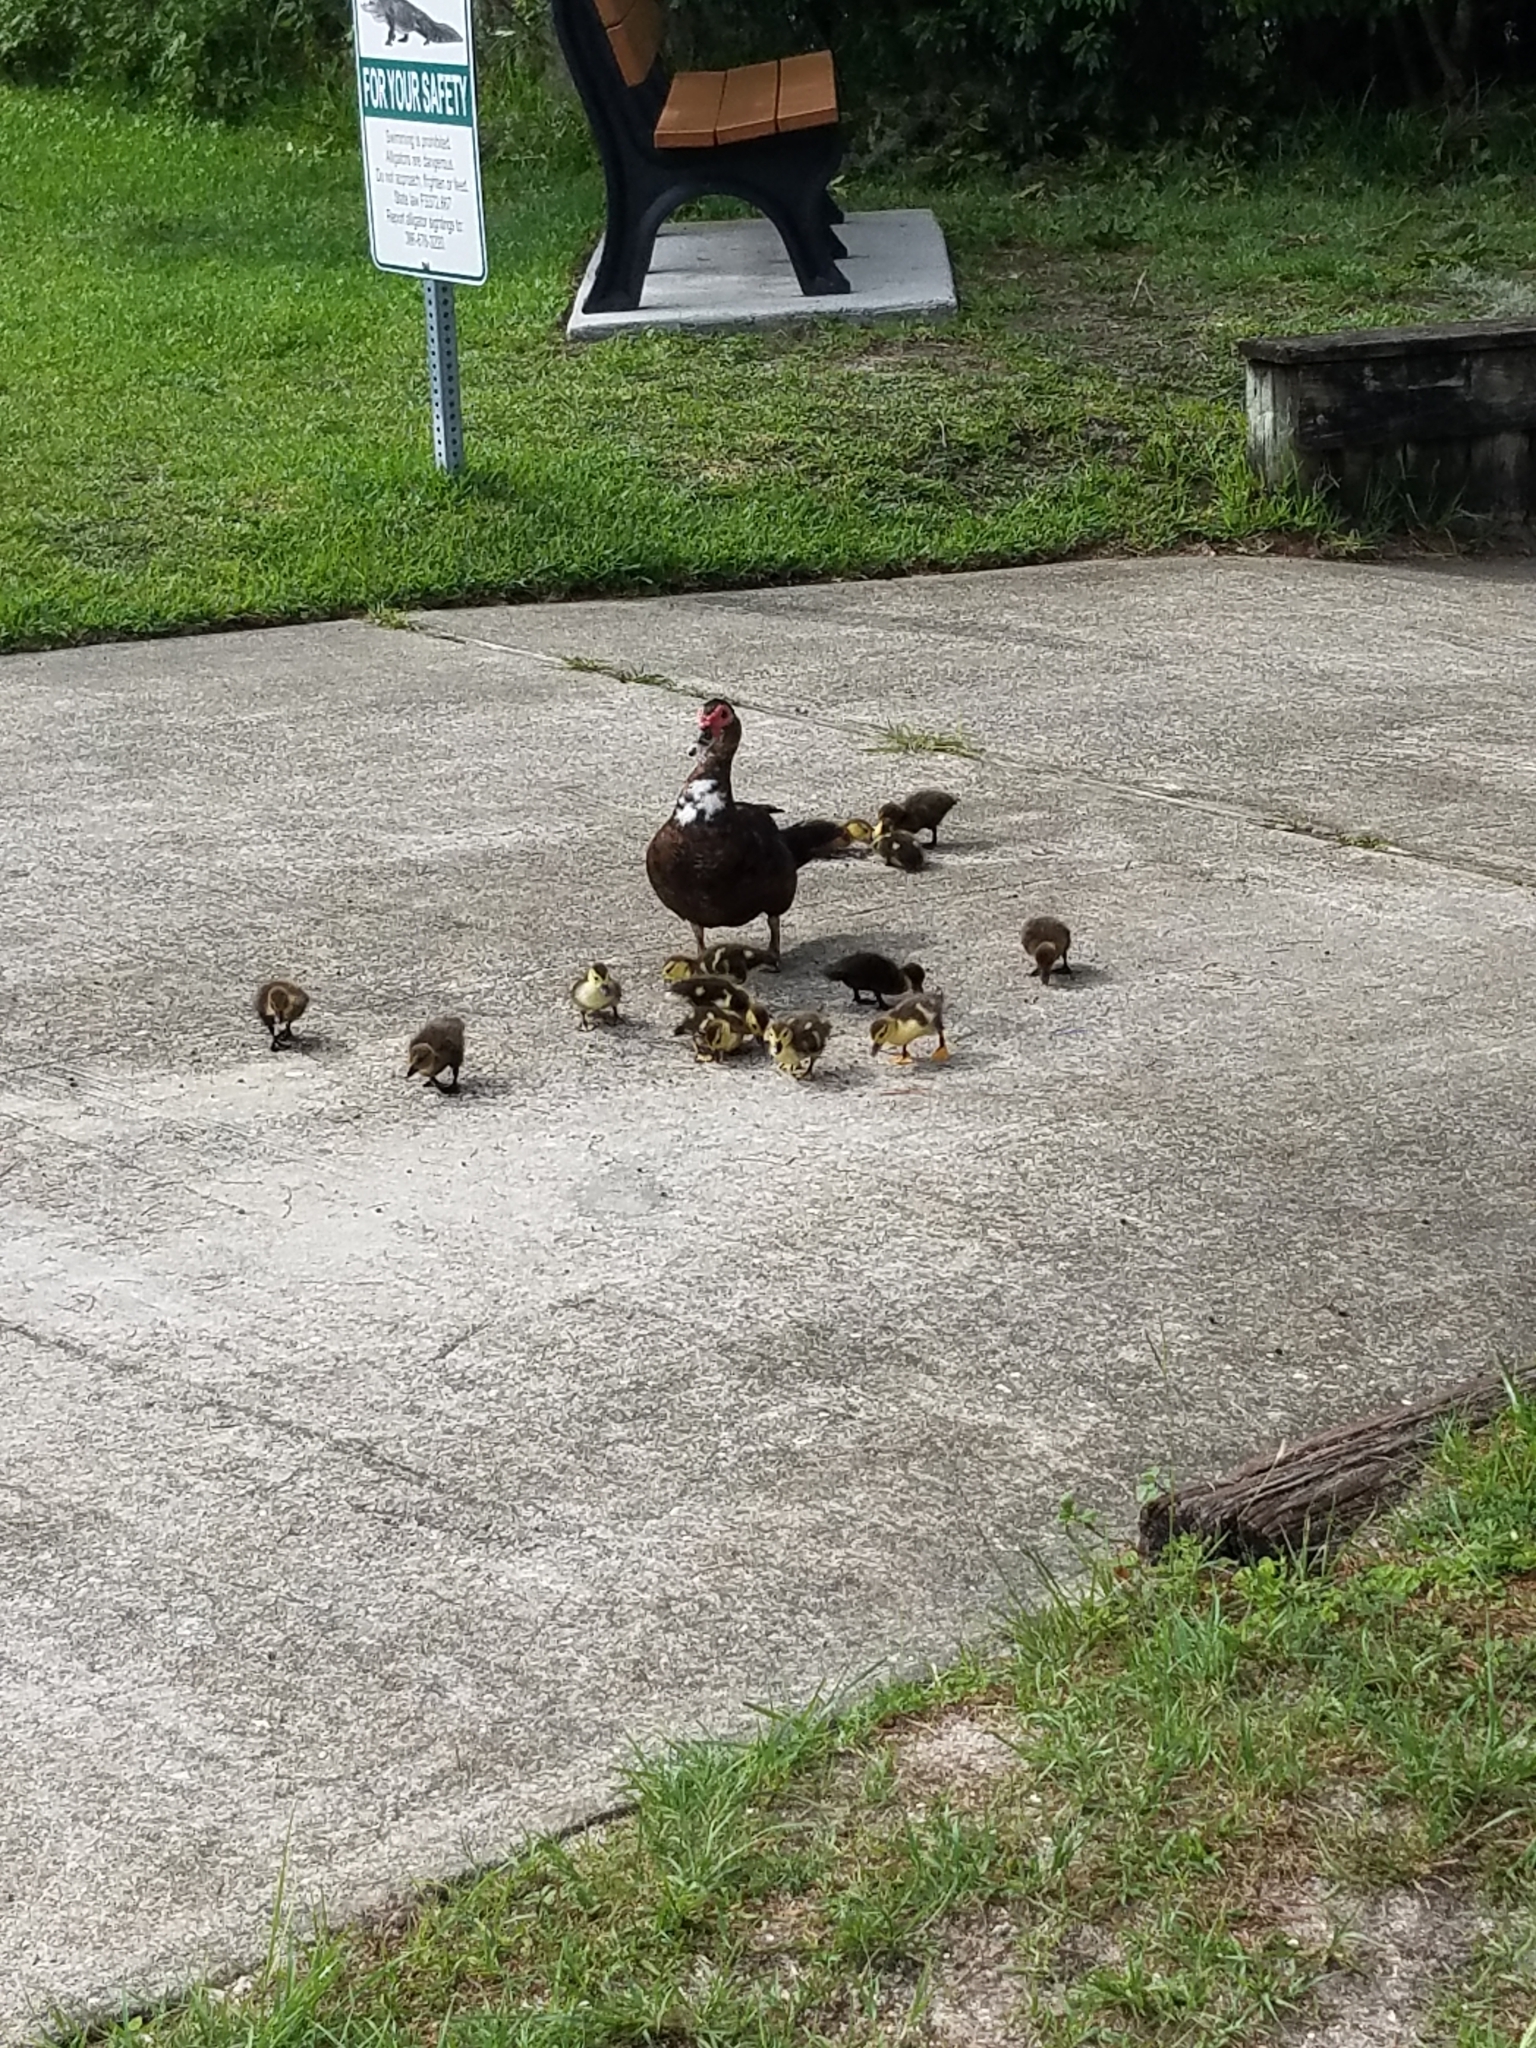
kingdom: Animalia
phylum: Chordata
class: Aves
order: Anseriformes
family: Anatidae
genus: Cairina
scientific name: Cairina moschata
